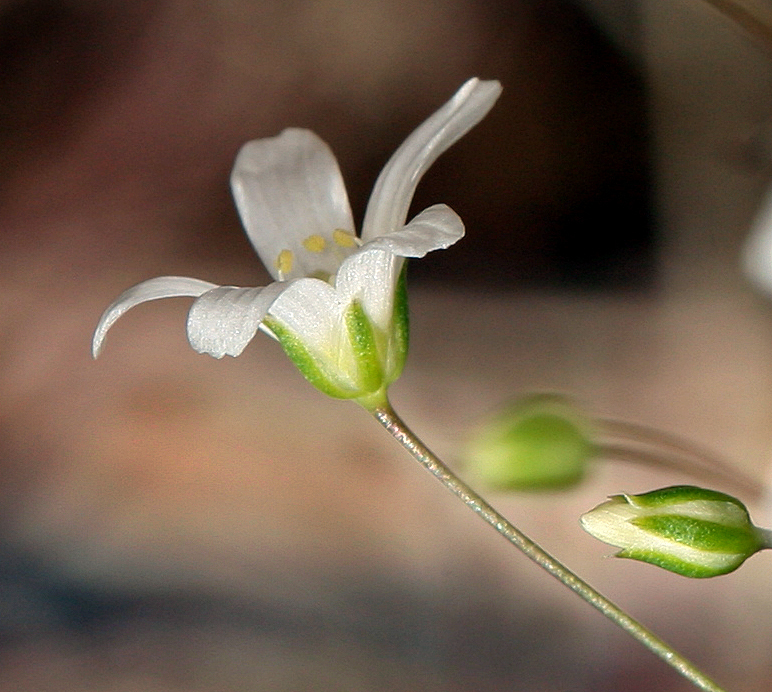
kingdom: Plantae
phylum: Tracheophyta
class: Magnoliopsida
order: Caryophyllales
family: Caryophyllaceae
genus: Eremogone
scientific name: Eremogone ferrisiae
